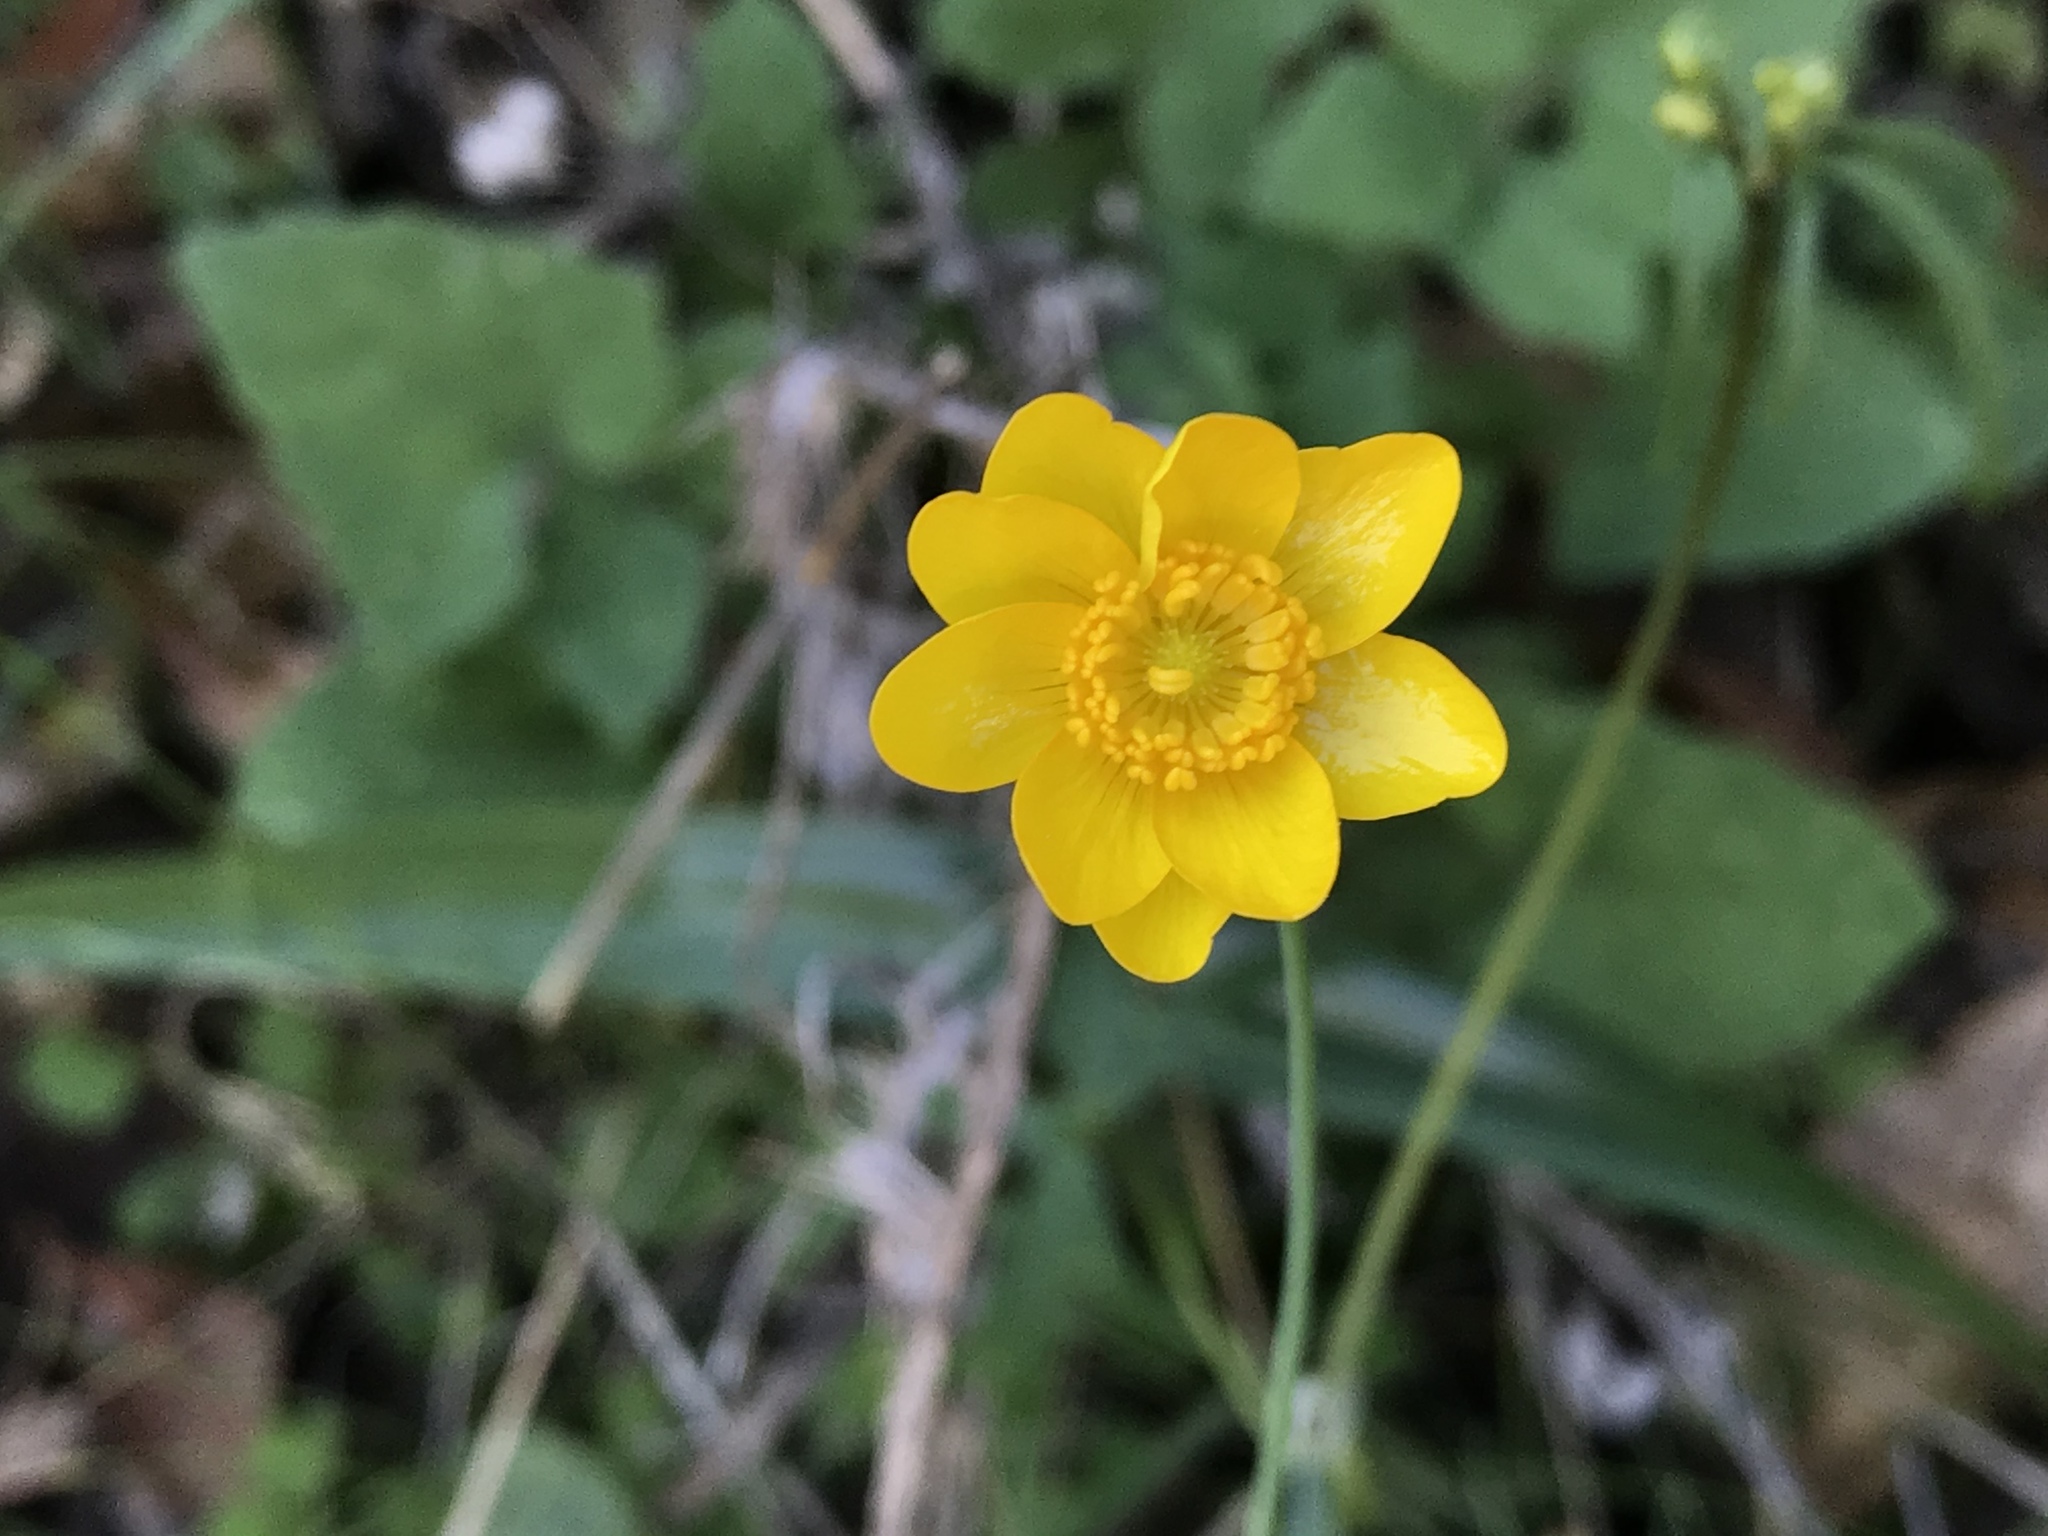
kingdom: Plantae
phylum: Tracheophyta
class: Magnoliopsida
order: Ranunculales
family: Ranunculaceae
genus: Ranunculus
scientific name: Ranunculus californicus
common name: California buttercup
